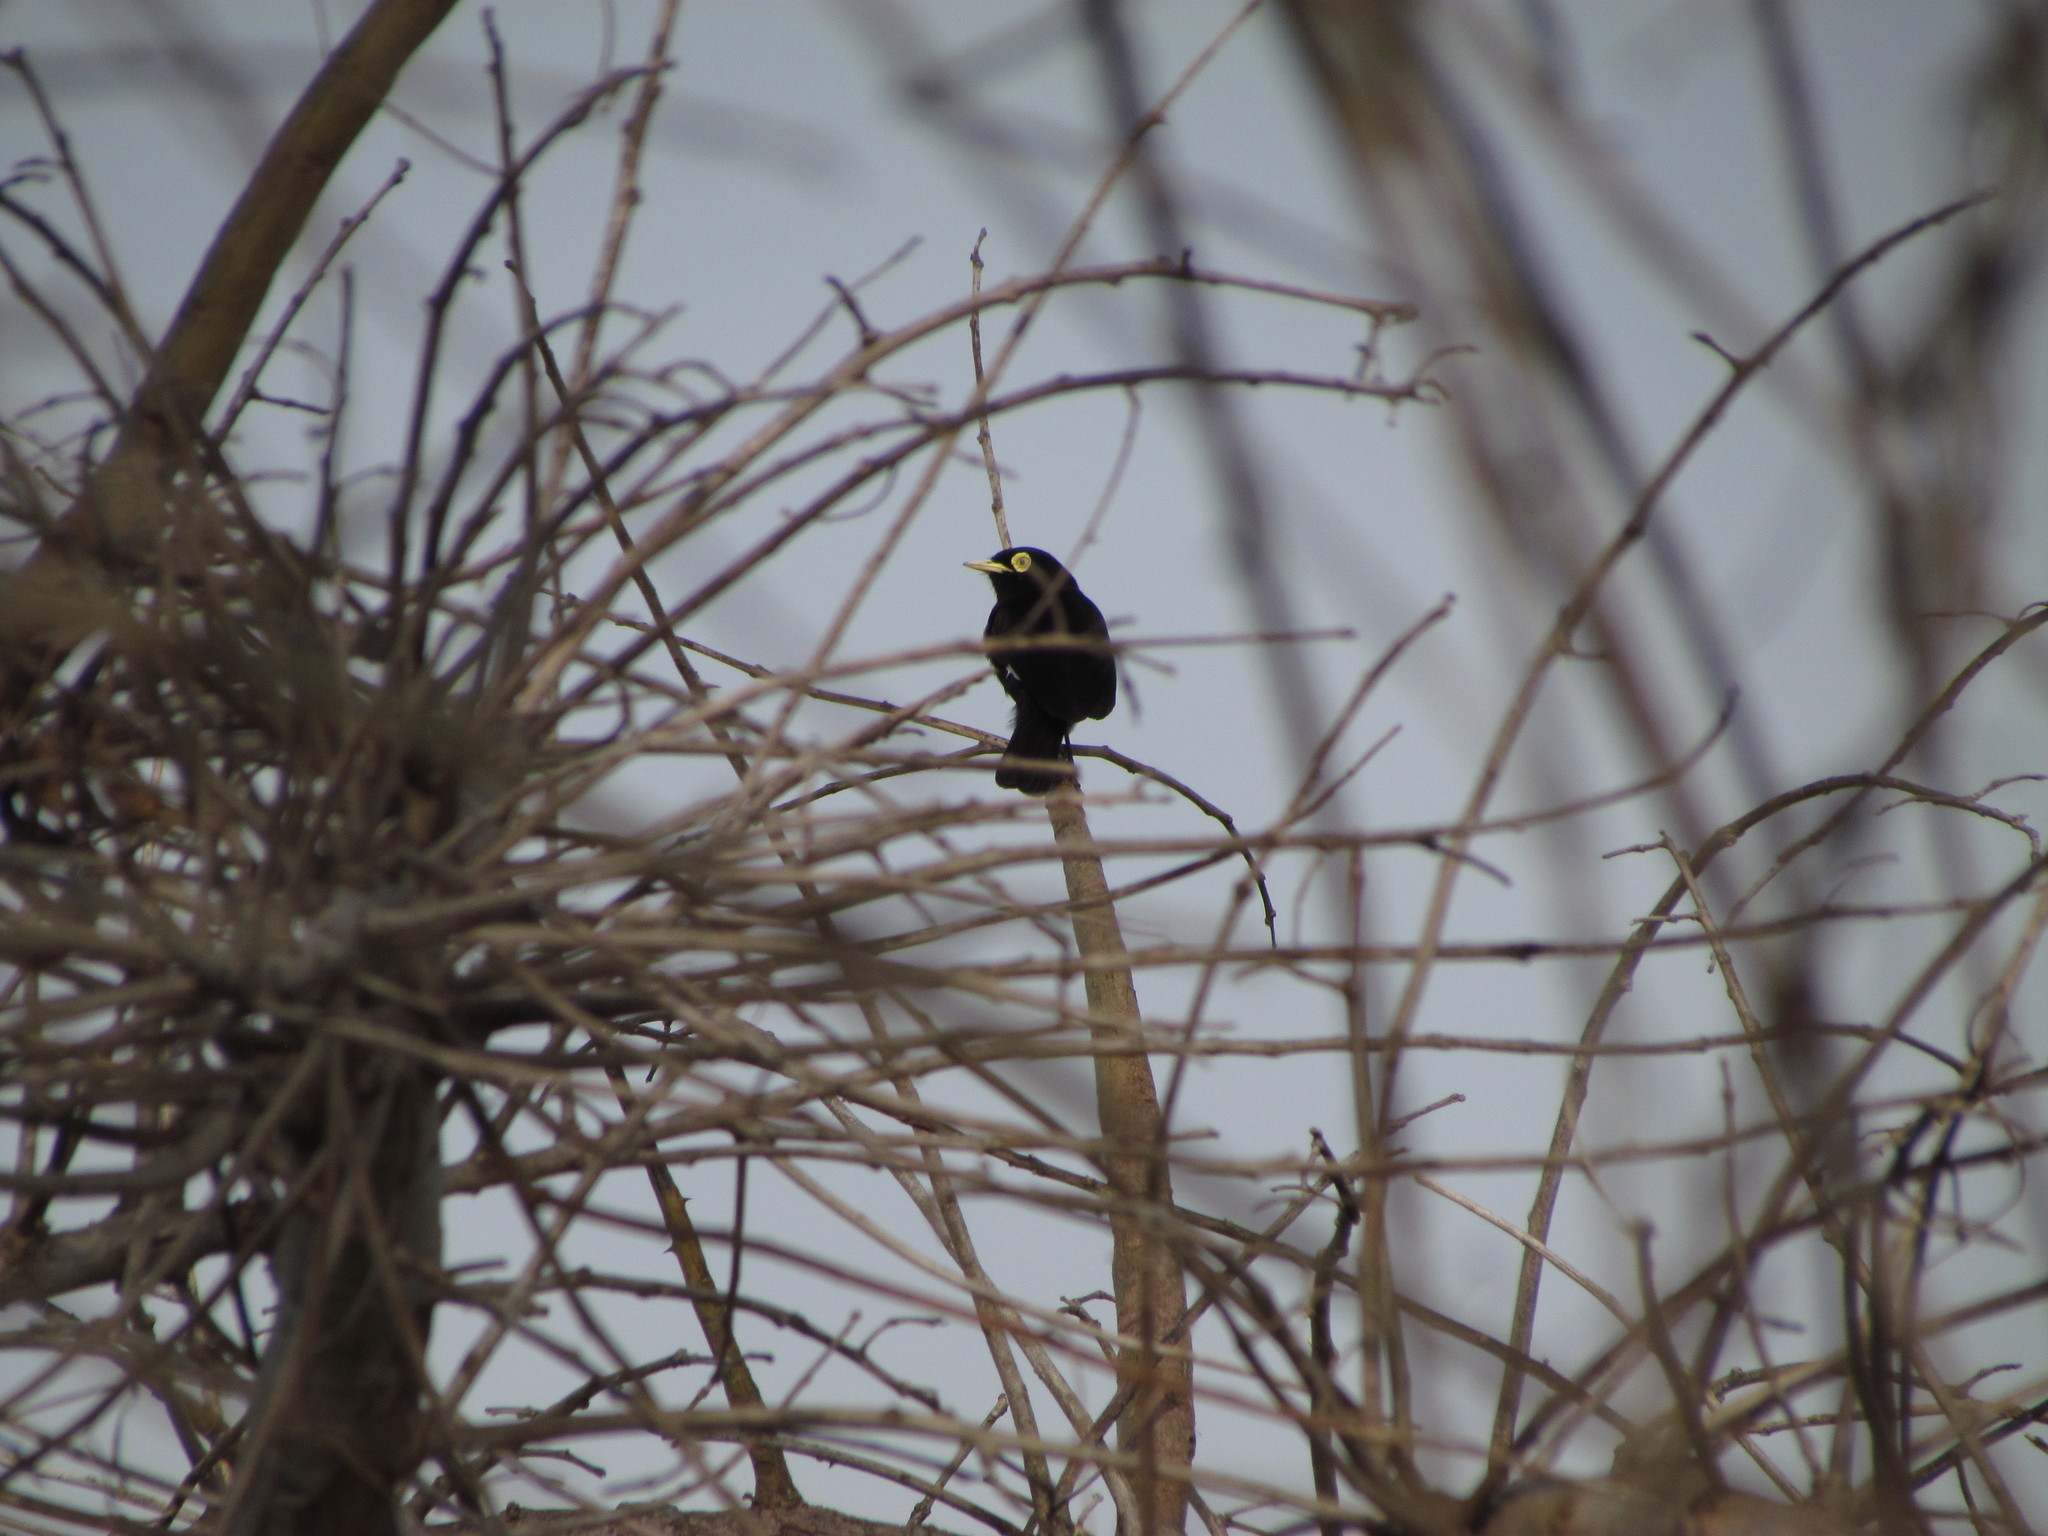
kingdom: Animalia
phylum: Chordata
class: Aves
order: Passeriformes
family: Tyrannidae
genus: Hymenops
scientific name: Hymenops perspicillatus
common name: Spectacled tyrant
